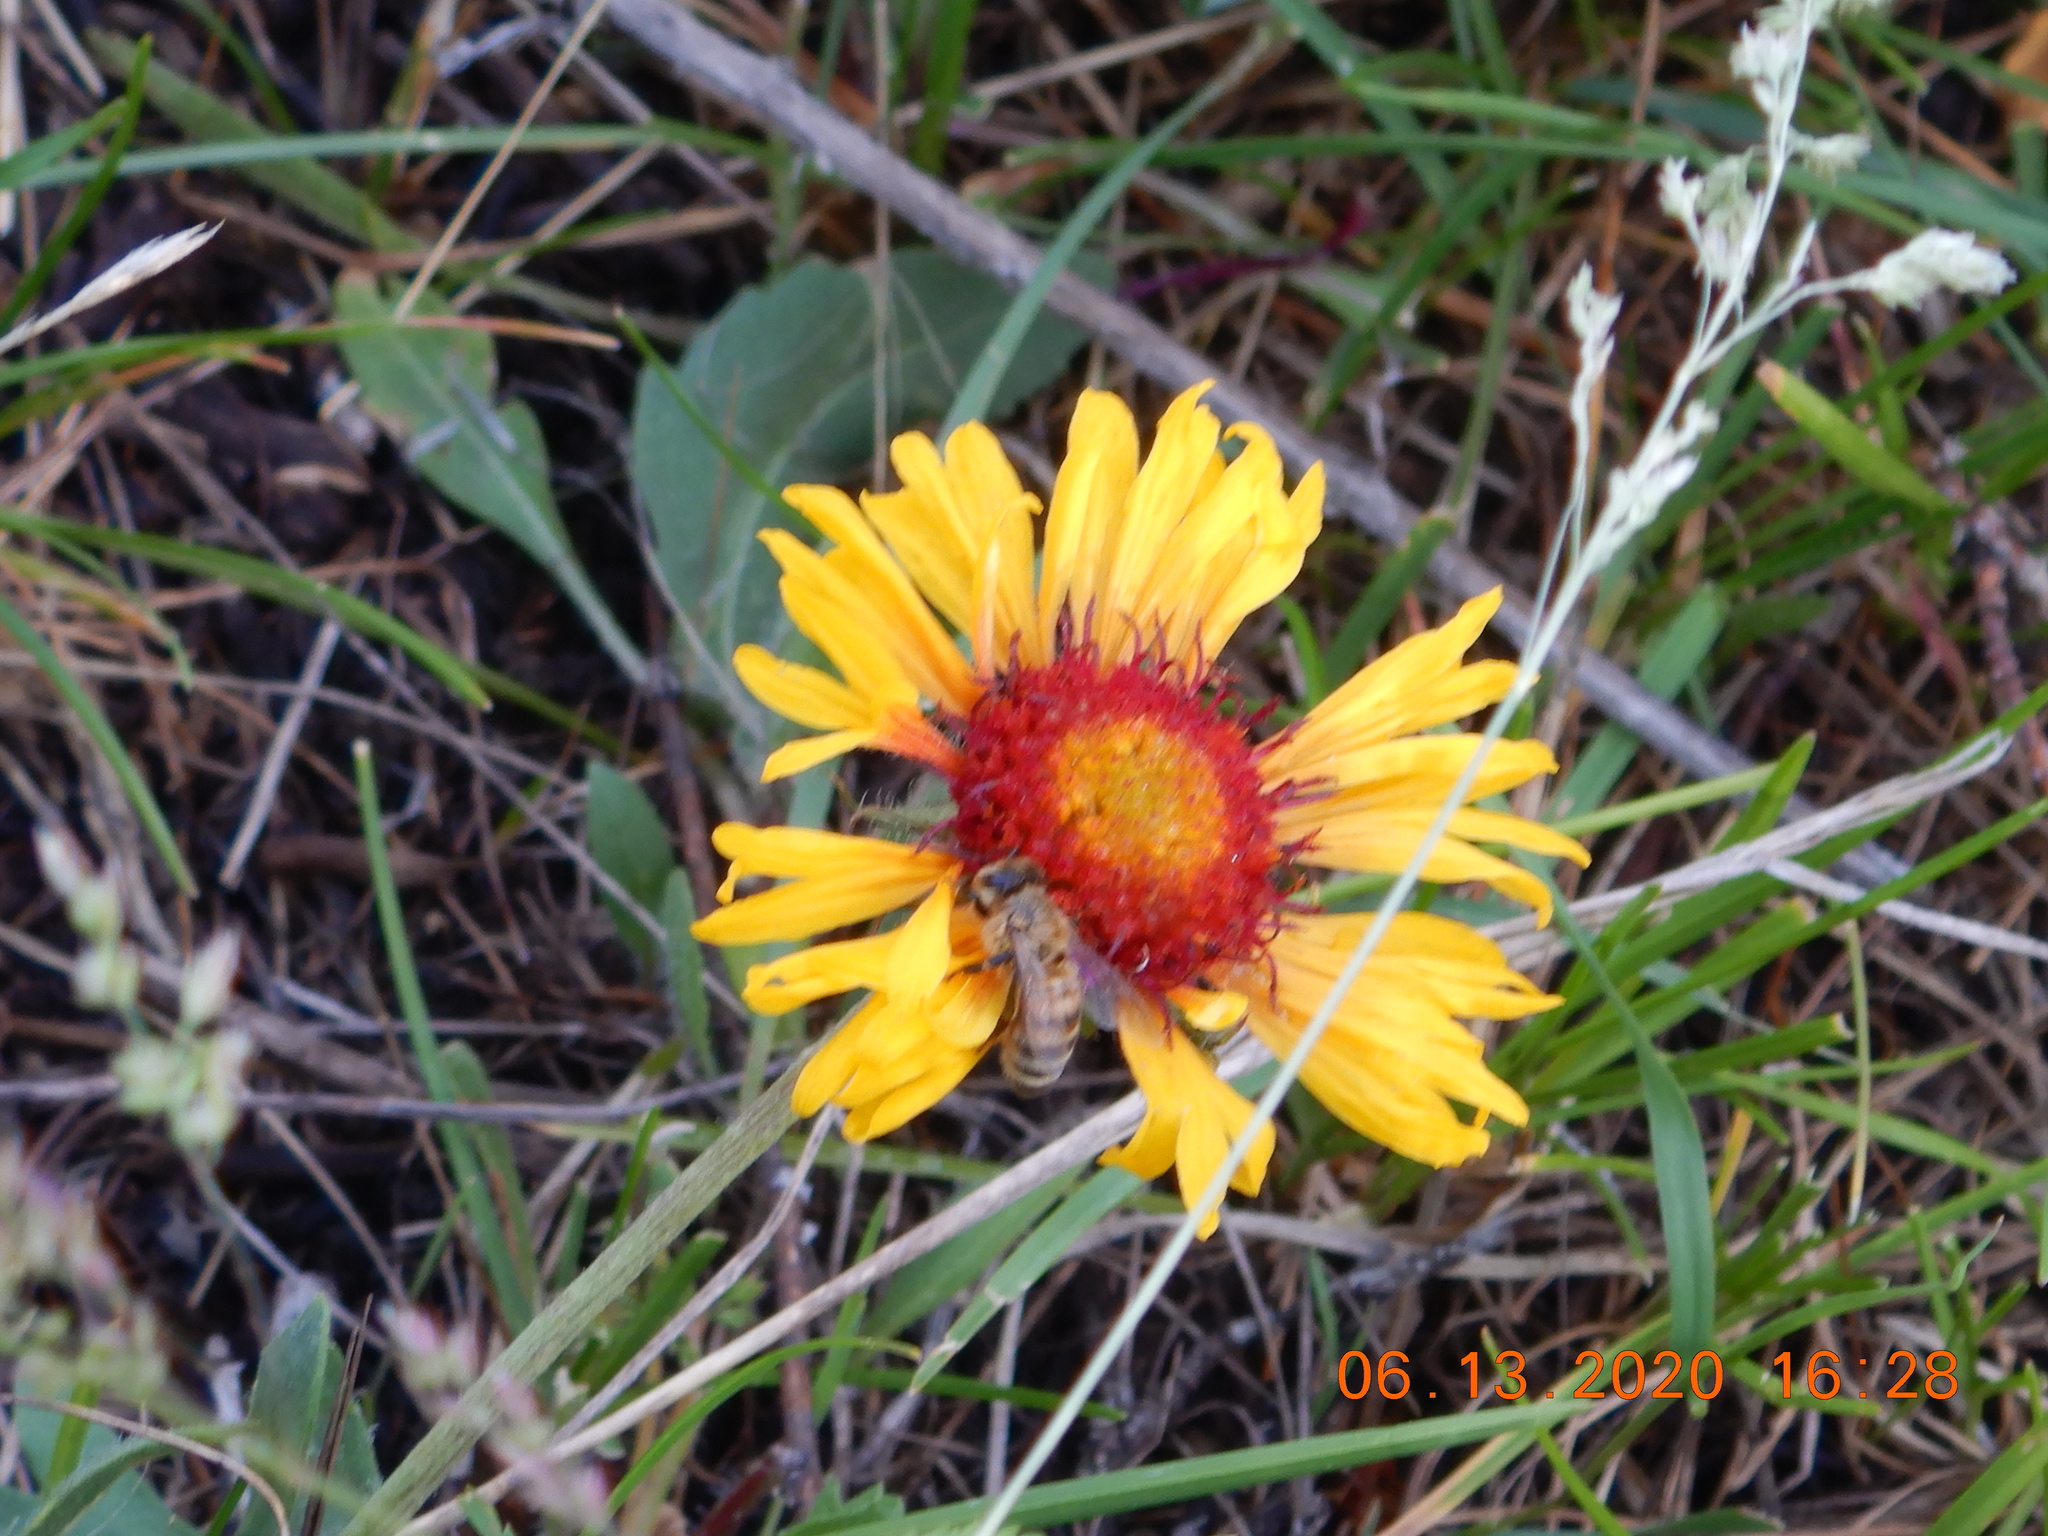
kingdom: Plantae
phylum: Tracheophyta
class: Magnoliopsida
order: Asterales
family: Asteraceae
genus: Gaillardia
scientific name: Gaillardia aristata
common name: Blanket-flower
